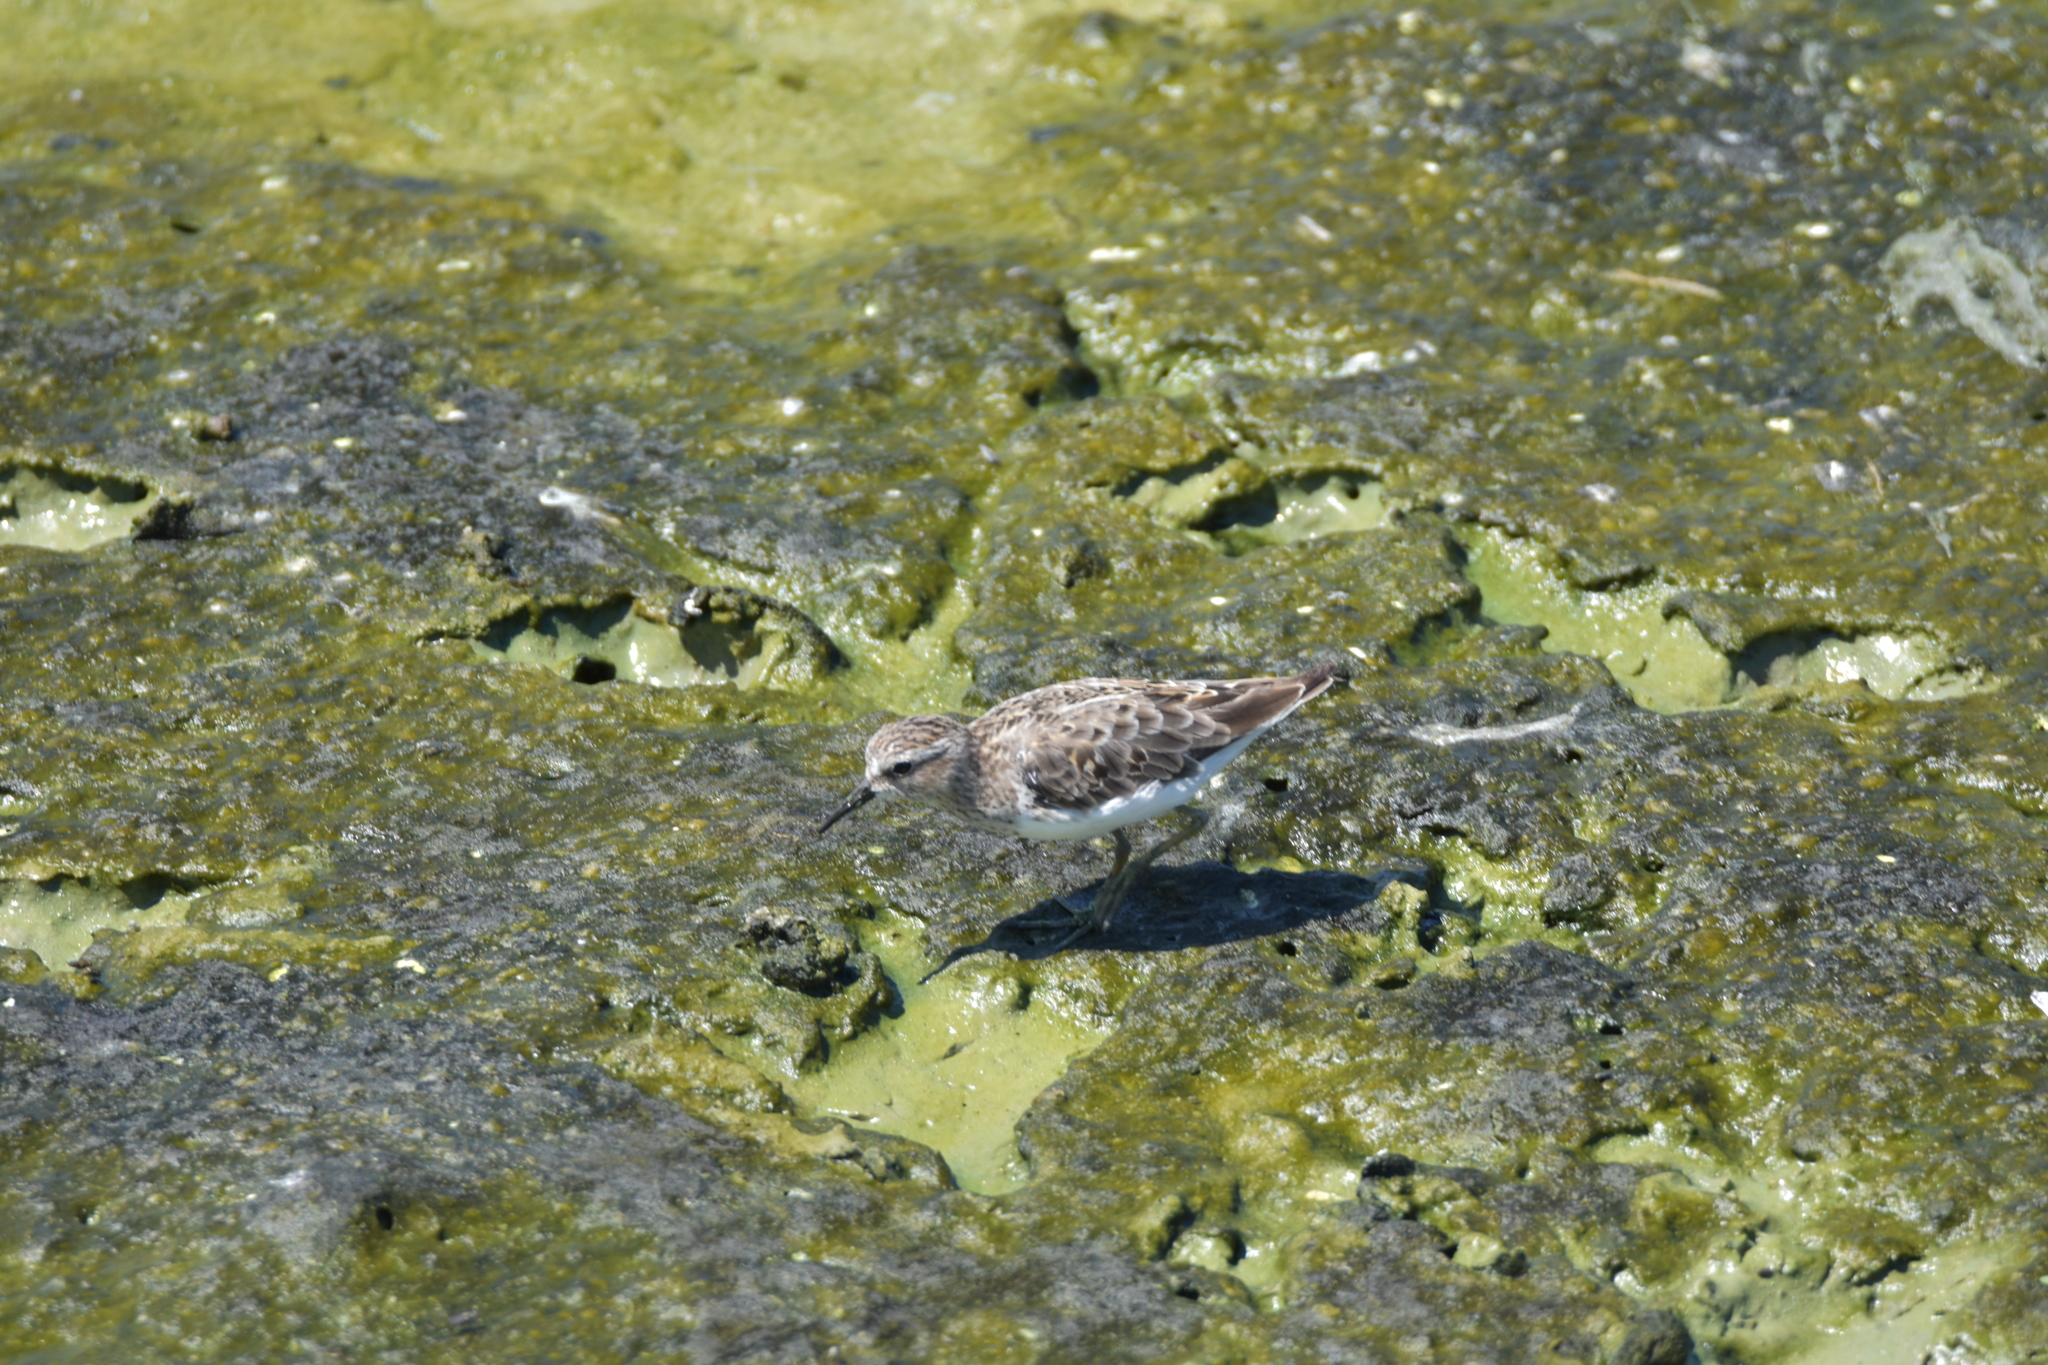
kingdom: Animalia
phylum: Chordata
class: Aves
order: Charadriiformes
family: Scolopacidae
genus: Calidris
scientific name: Calidris minutilla
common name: Least sandpiper
